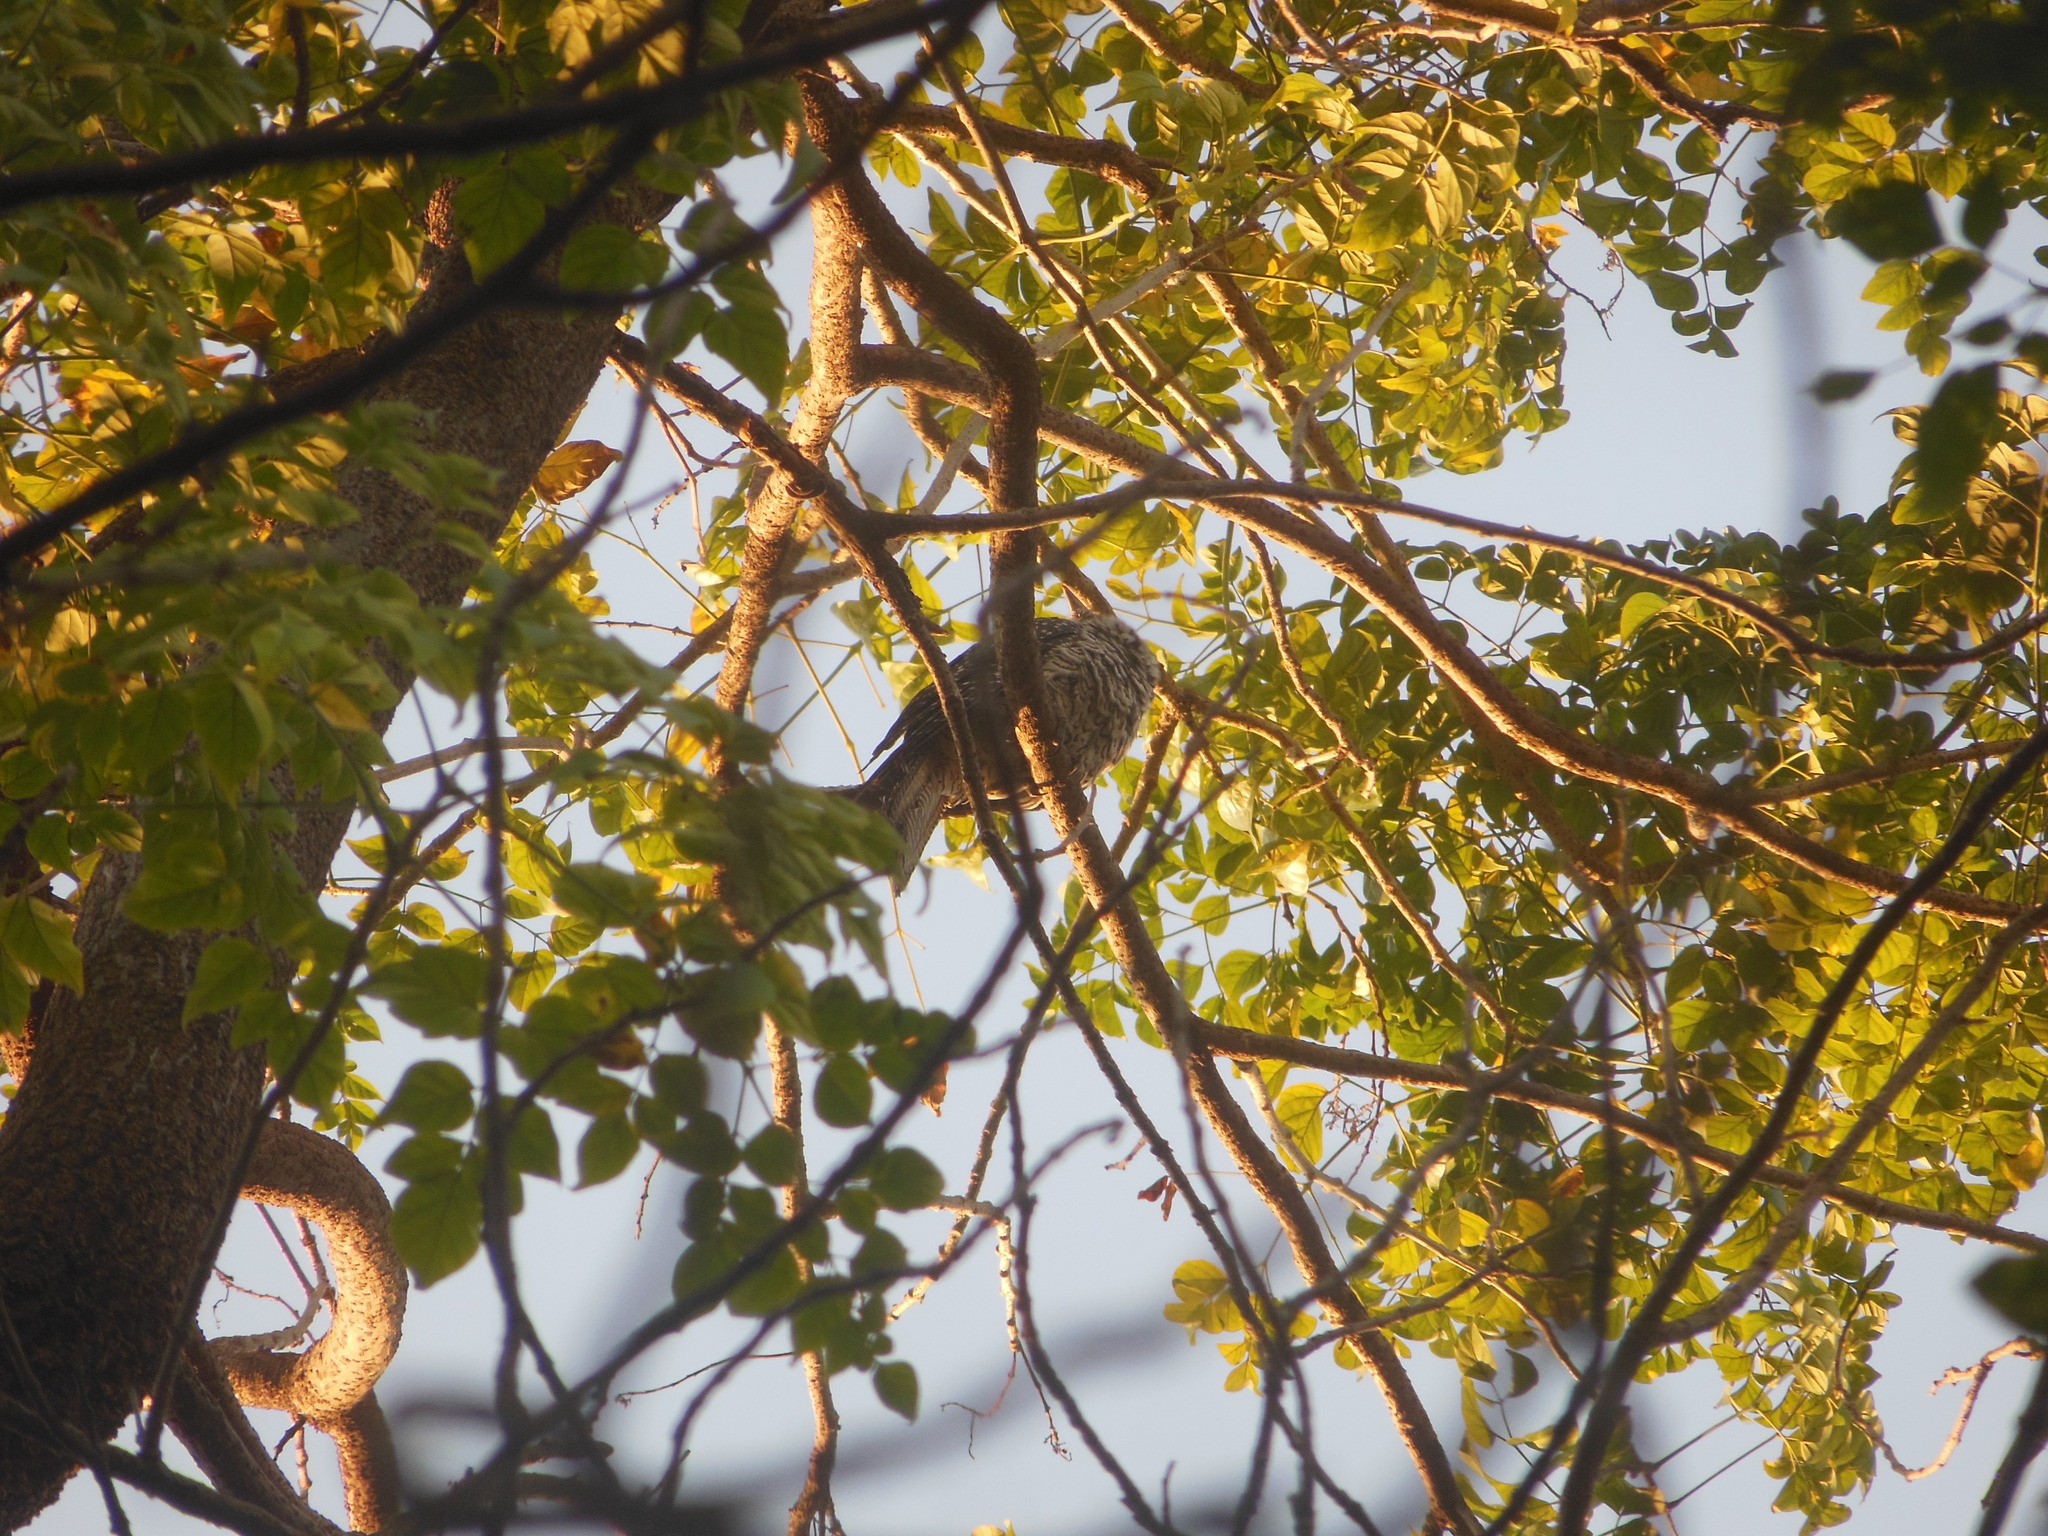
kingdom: Animalia
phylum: Chordata
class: Aves
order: Cuculiformes
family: Cuculidae
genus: Eudynamys
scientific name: Eudynamys scolopaceus
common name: Asian koel
